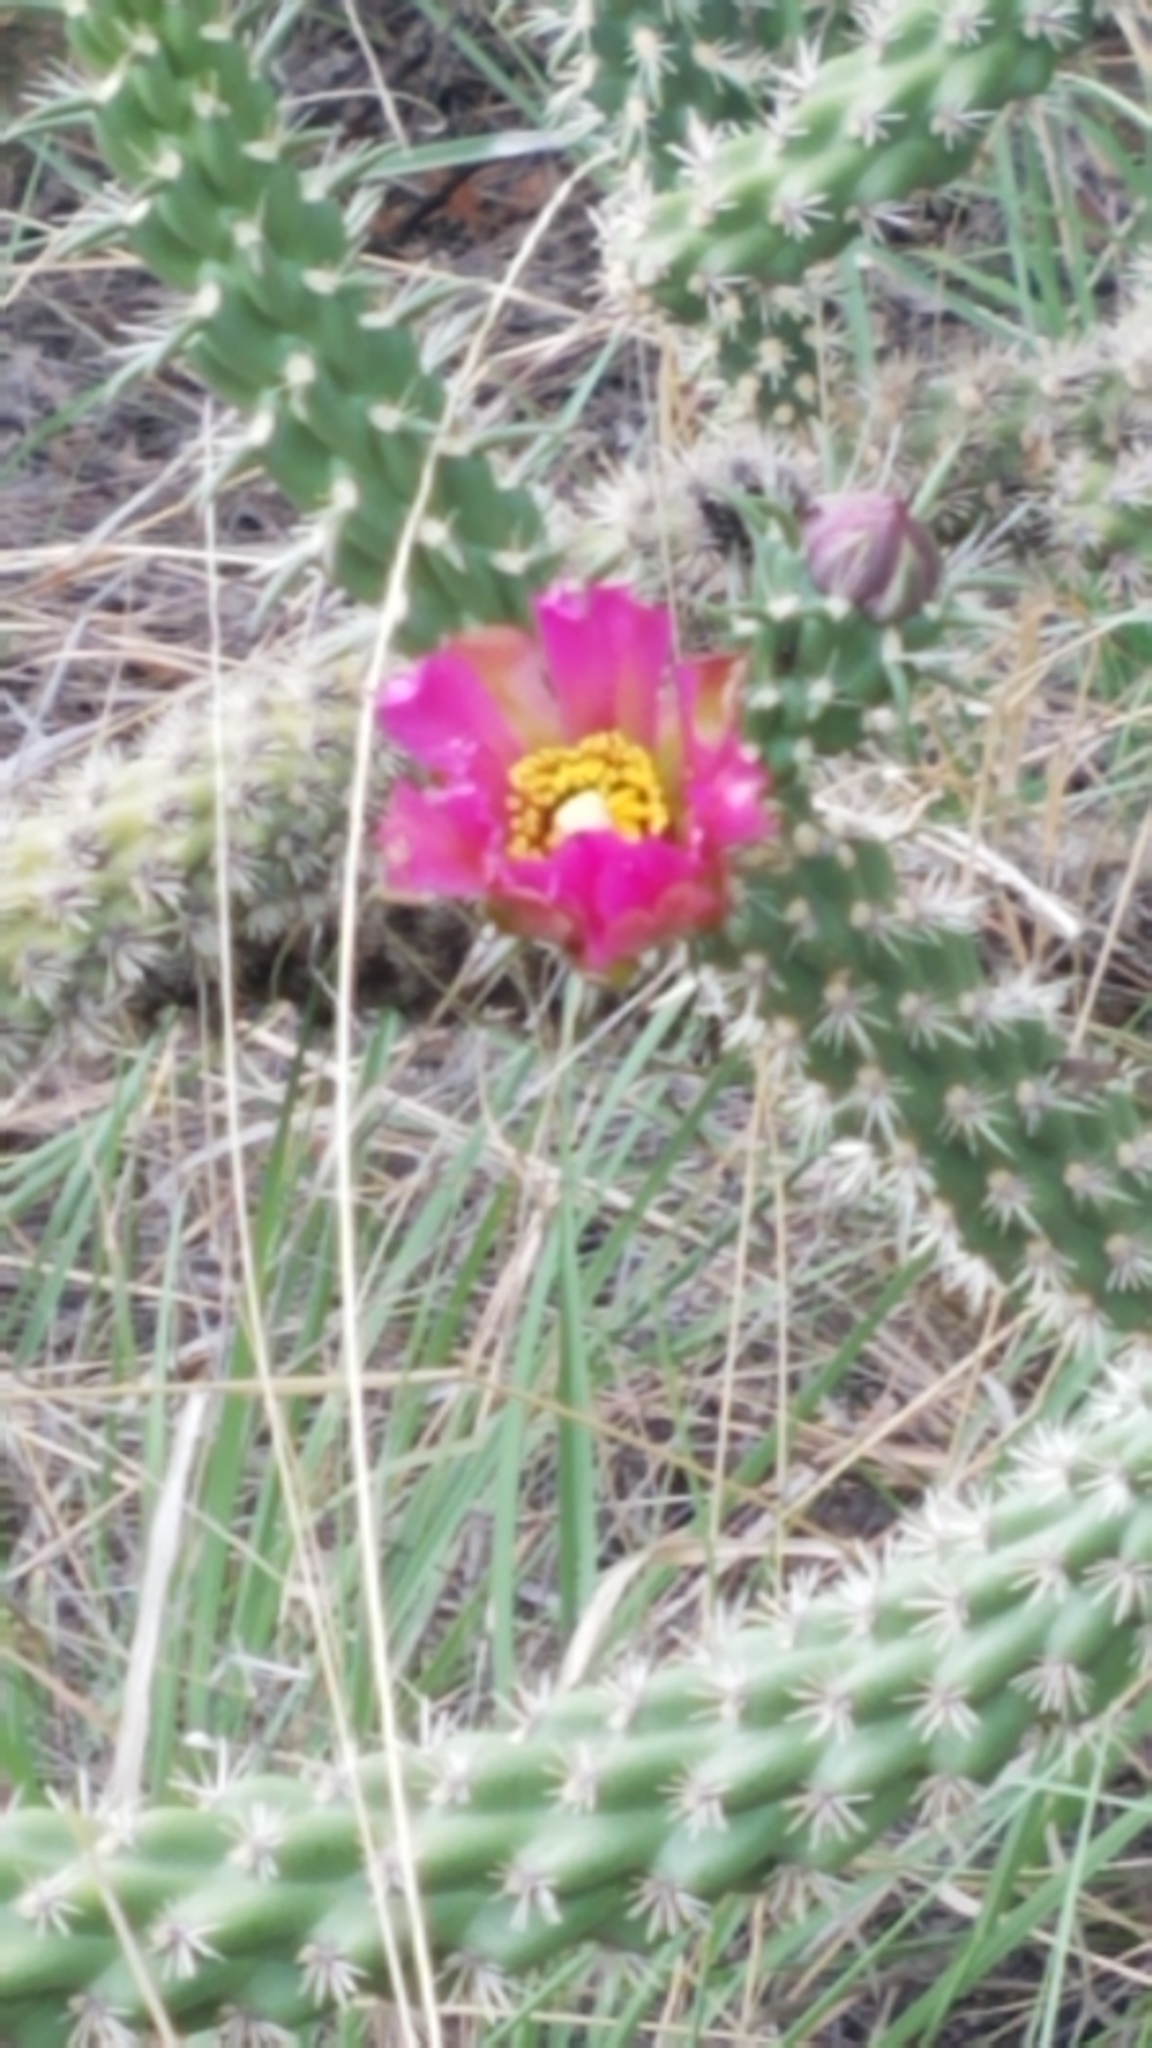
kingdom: Plantae
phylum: Tracheophyta
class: Magnoliopsida
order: Caryophyllales
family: Cactaceae
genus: Cylindropuntia
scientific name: Cylindropuntia imbricata
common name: Candelabrum cactus
